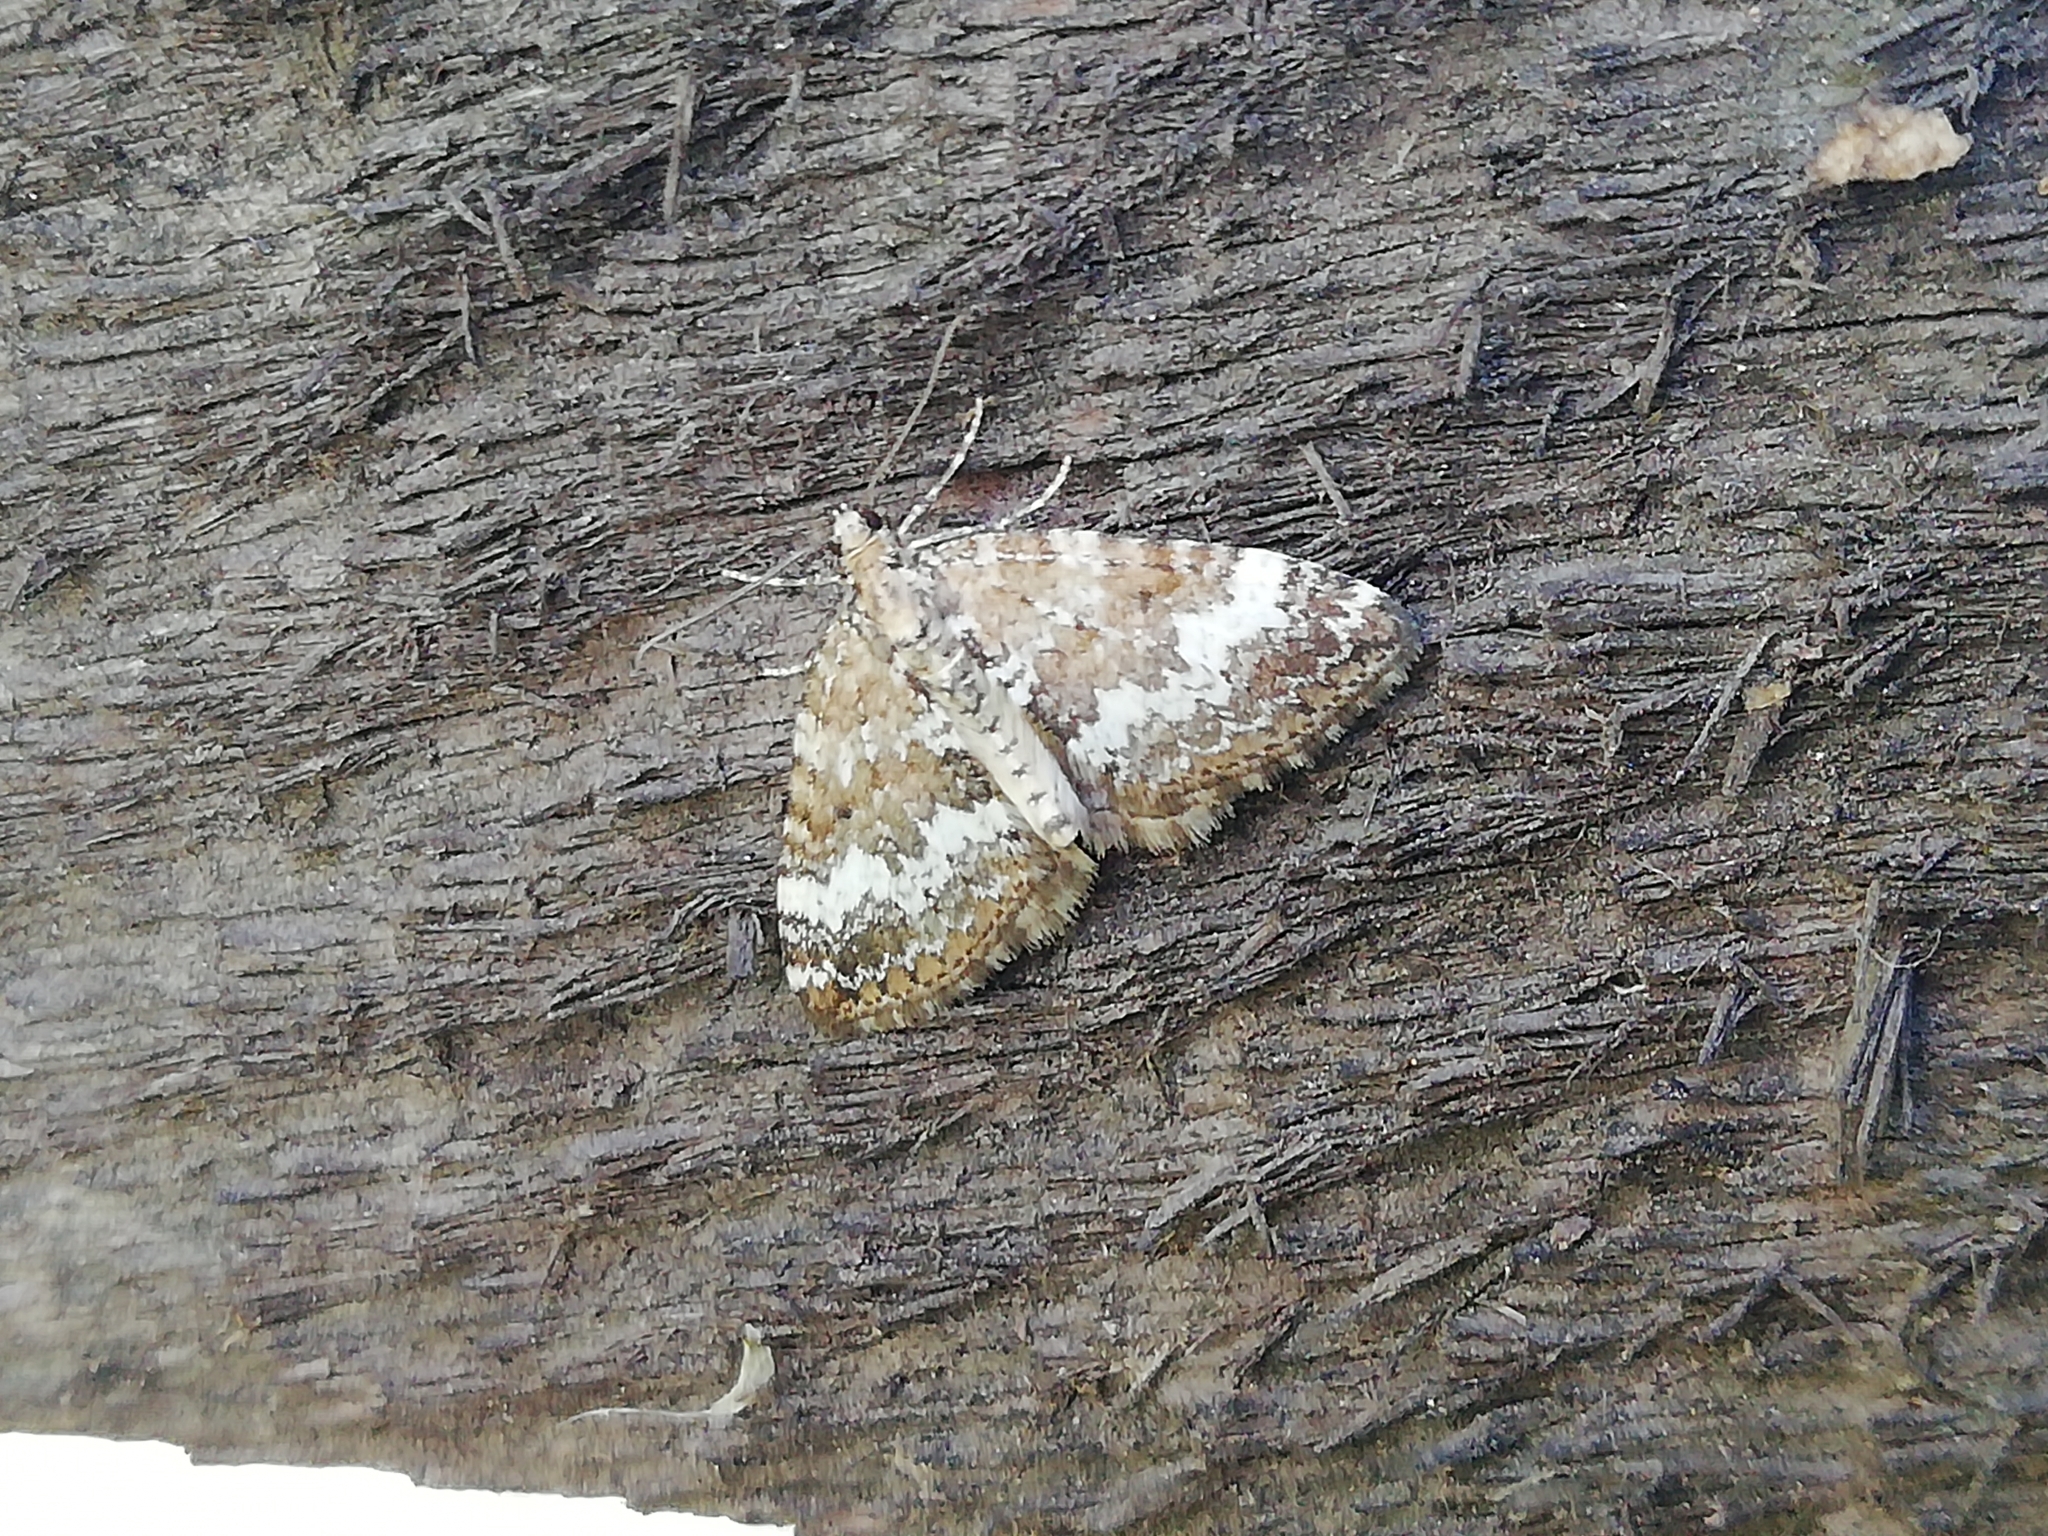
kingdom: Animalia
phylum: Arthropoda
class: Insecta
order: Lepidoptera
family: Geometridae
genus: Perizoma
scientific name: Perizoma alchemillata
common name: Small rivulet
